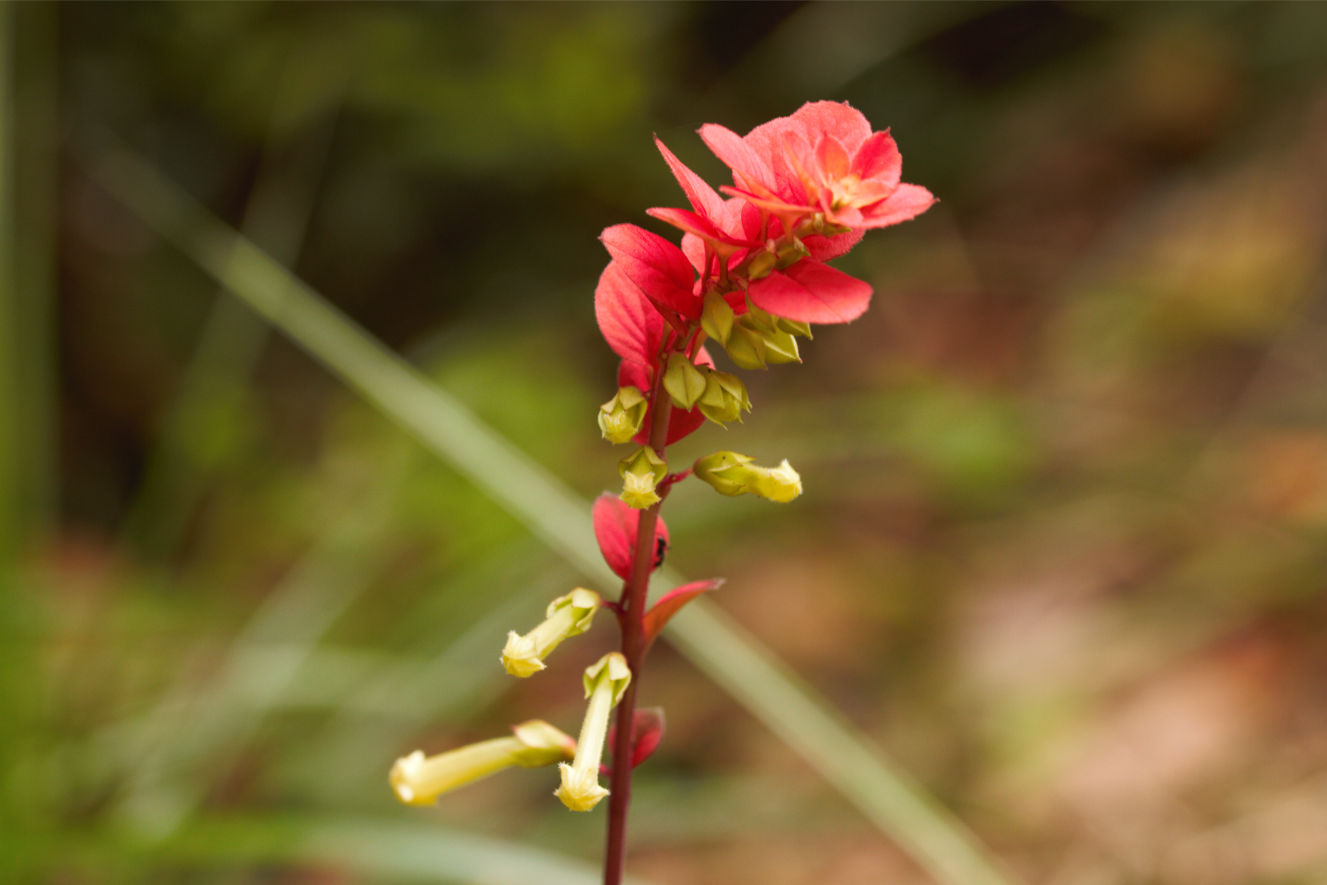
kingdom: Plantae
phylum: Tracheophyta
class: Magnoliopsida
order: Lamiales
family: Lamiaceae
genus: Amasonia
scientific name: Amasonia campestris
